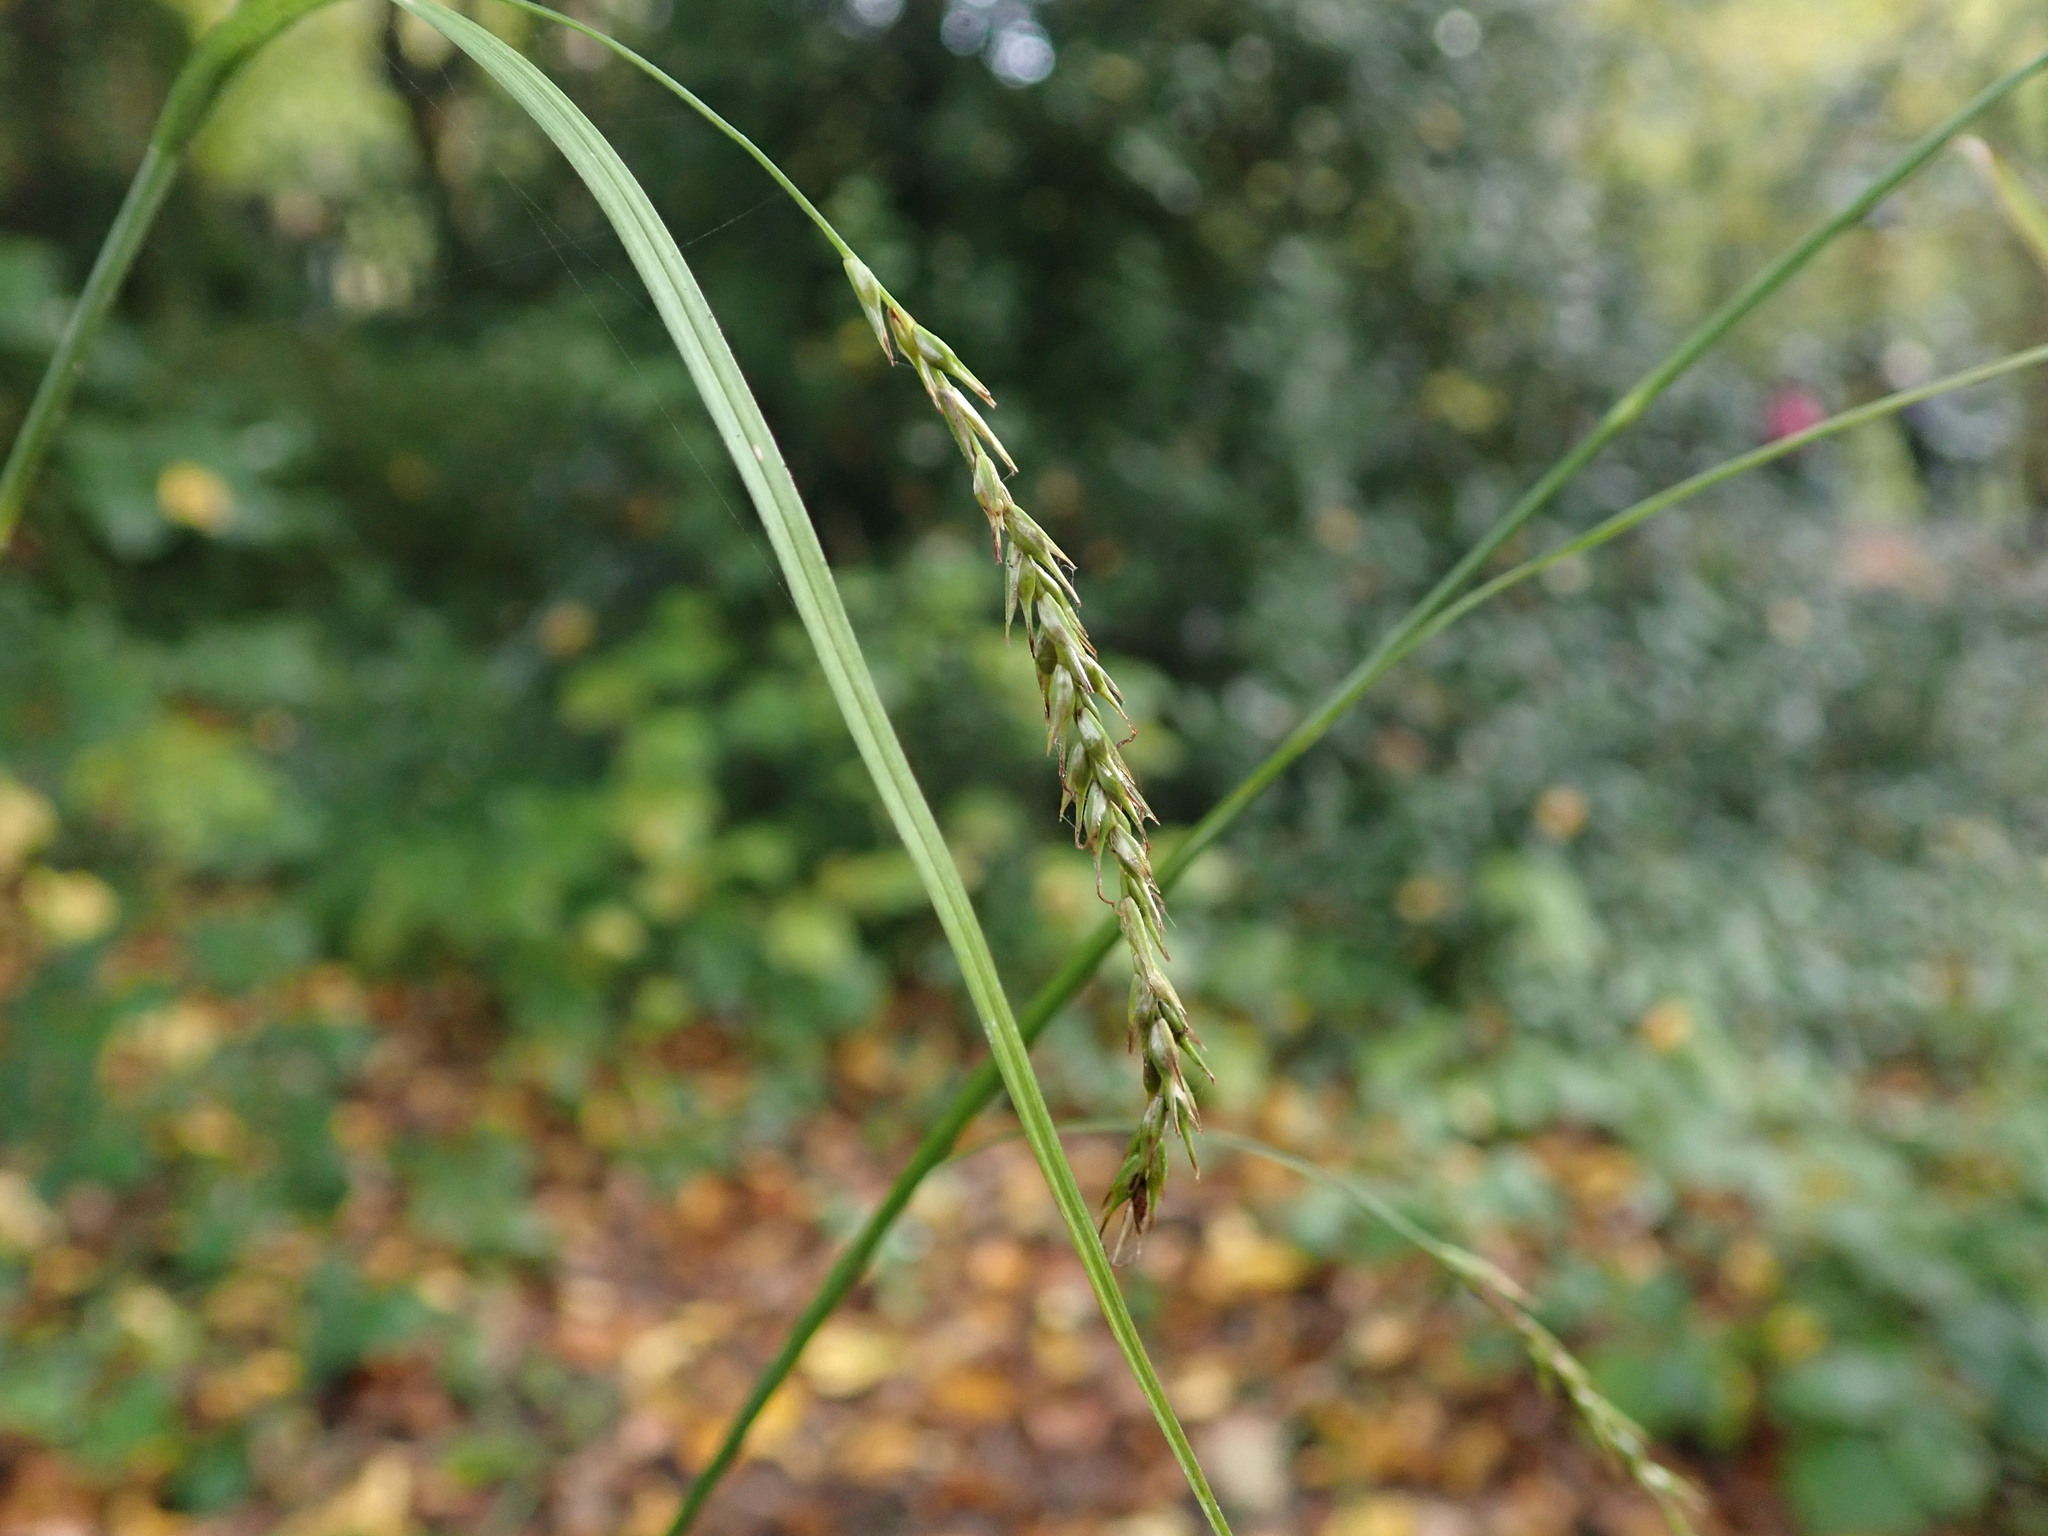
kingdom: Plantae
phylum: Tracheophyta
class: Liliopsida
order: Poales
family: Cyperaceae
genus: Carex
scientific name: Carex sylvatica
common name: Wood-sedge
